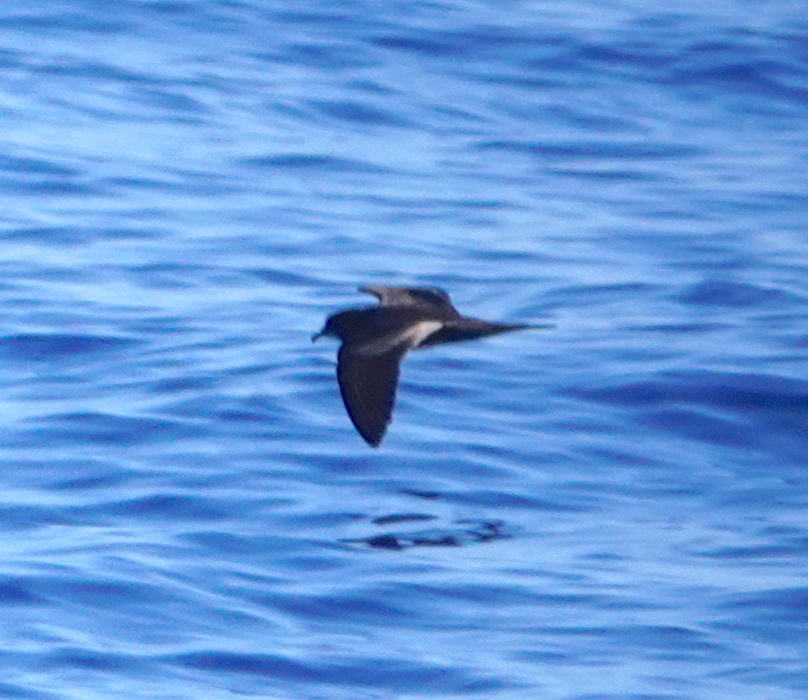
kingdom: Animalia
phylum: Chordata
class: Aves
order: Procellariiformes
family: Procellariidae
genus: Bulweria
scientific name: Bulweria bulwerii
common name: Bulwer's petrel
